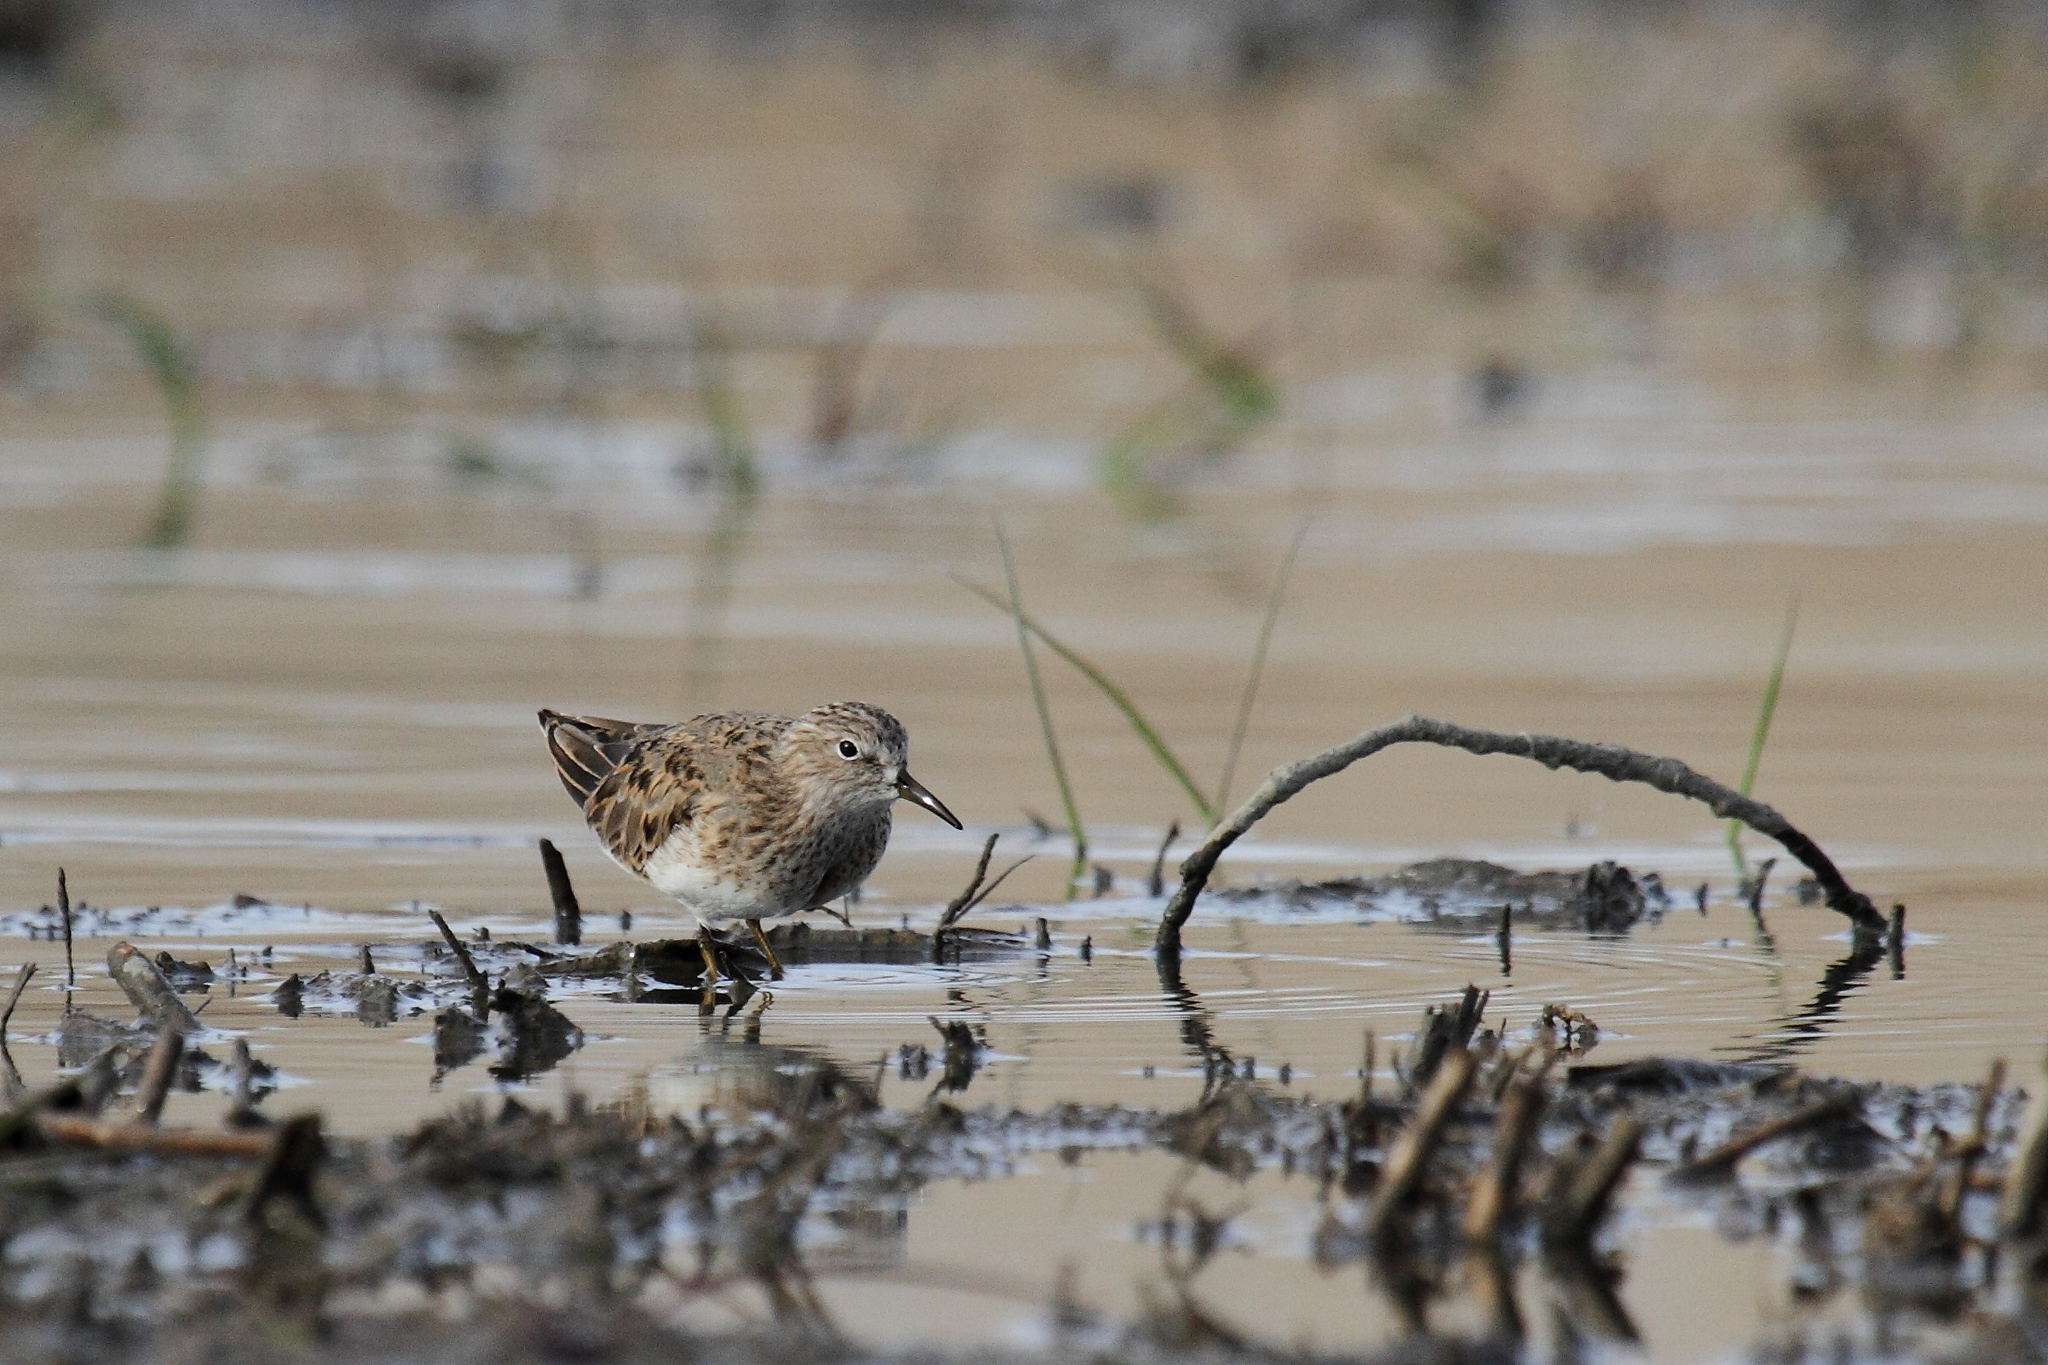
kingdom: Animalia
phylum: Chordata
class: Aves
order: Charadriiformes
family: Scolopacidae
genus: Calidris
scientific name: Calidris temminckii
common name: Temminck's stint
